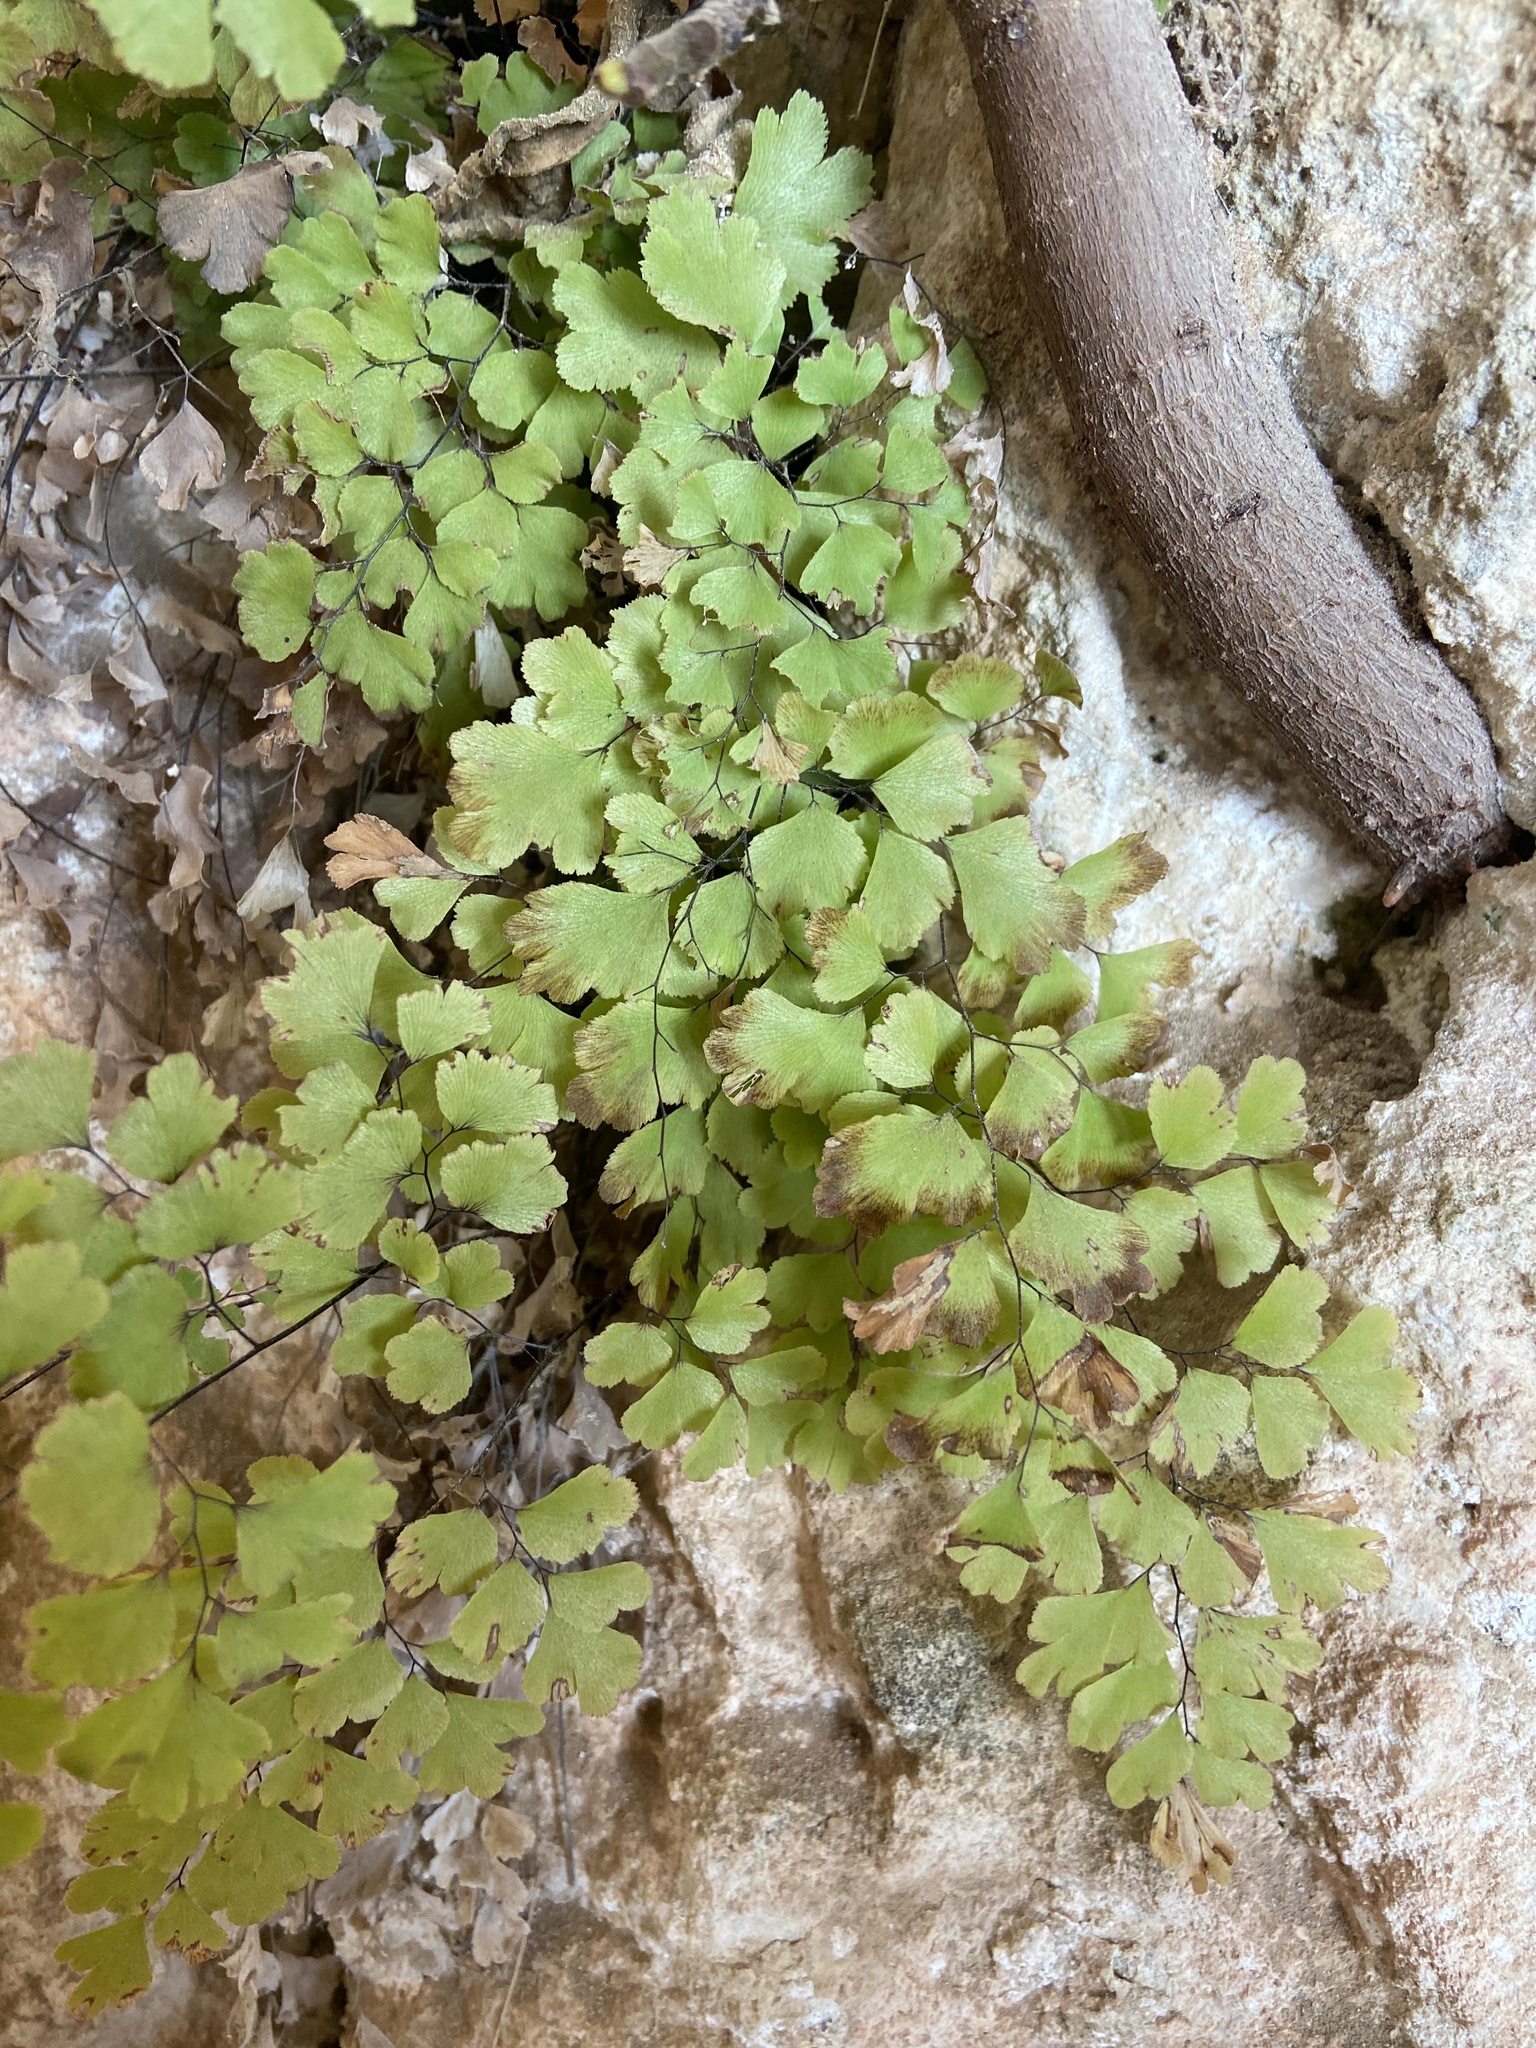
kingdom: Plantae
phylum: Tracheophyta
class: Polypodiopsida
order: Polypodiales
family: Pteridaceae
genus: Adiantum
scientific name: Adiantum capillus-veneris
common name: Maidenhair fern
